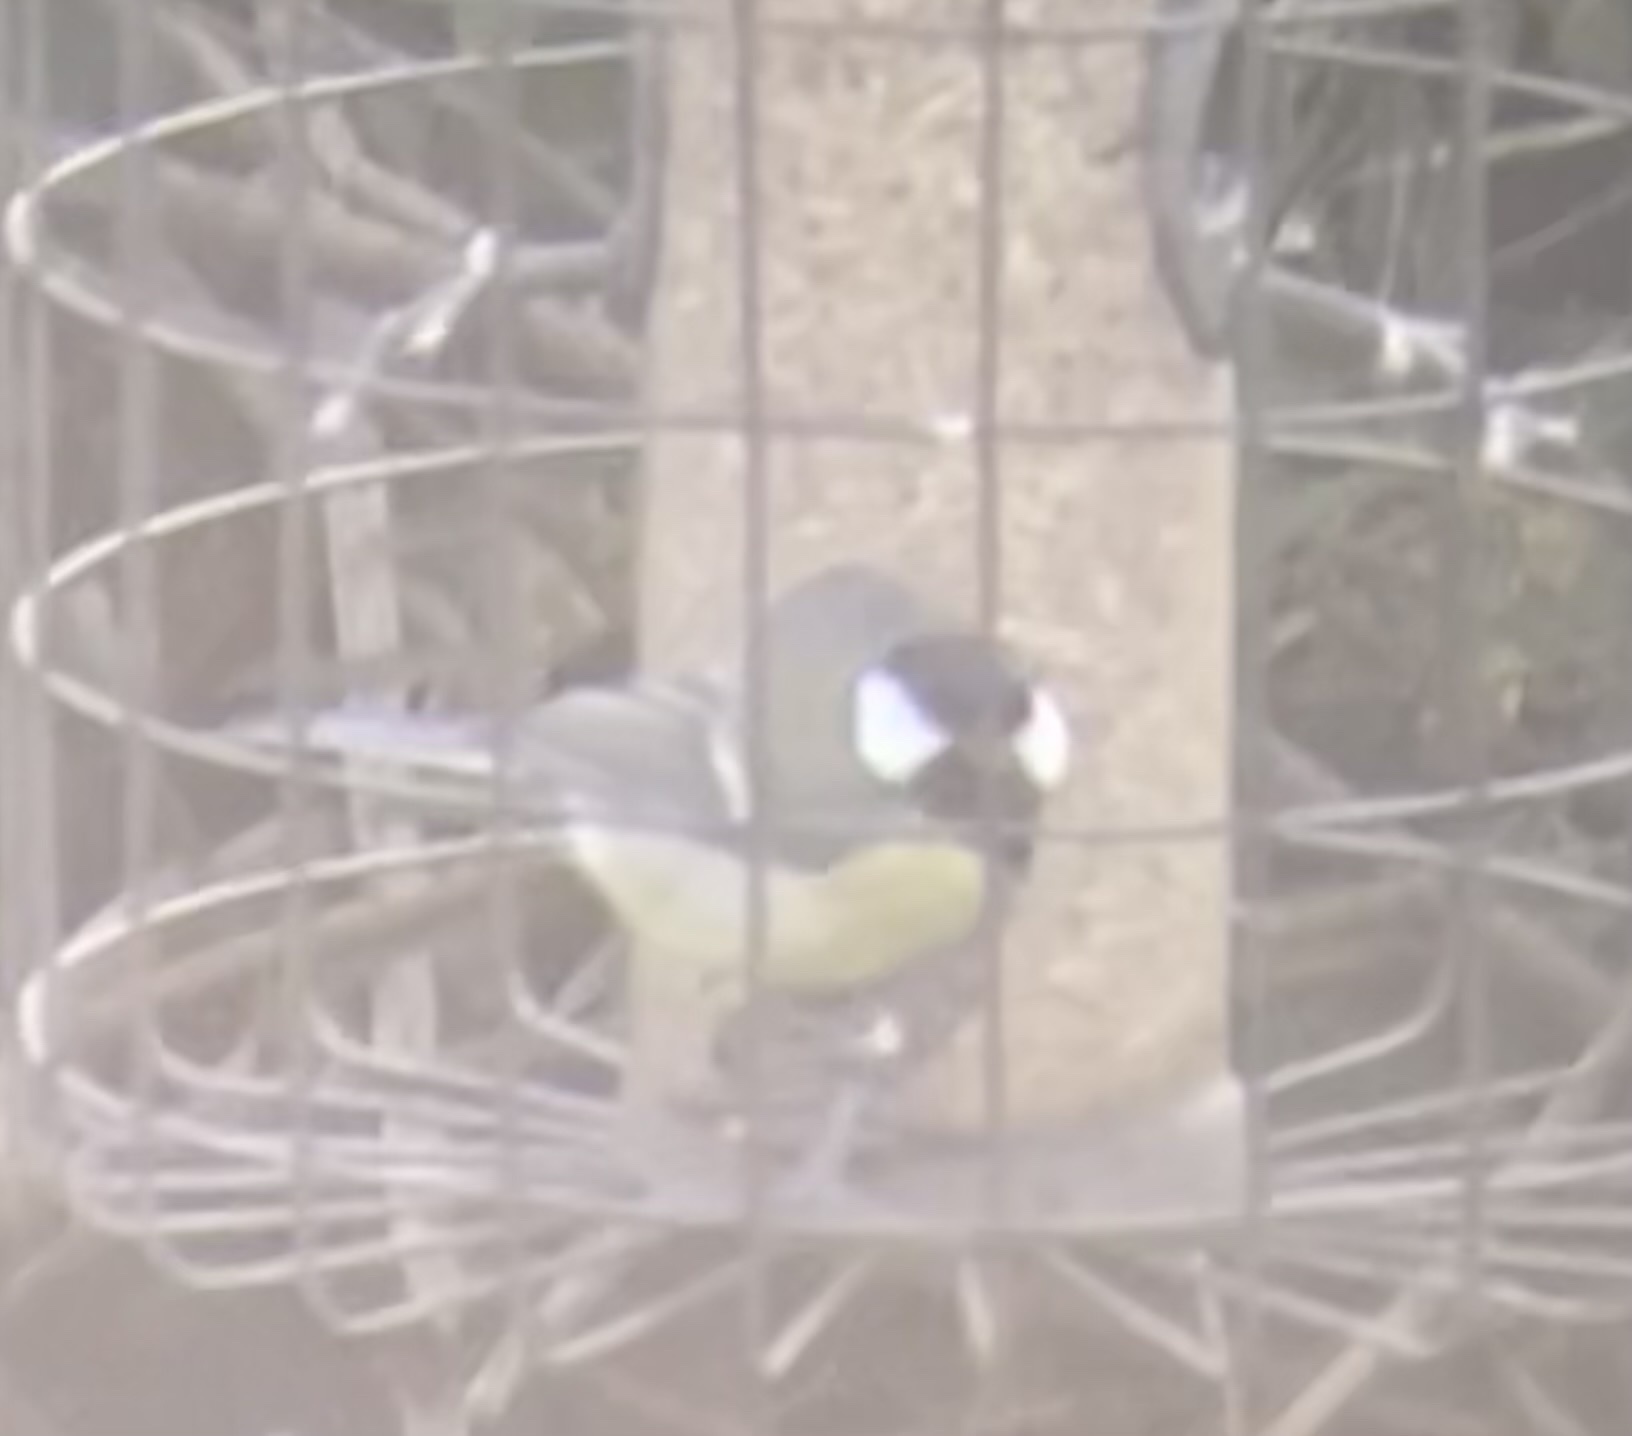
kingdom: Animalia
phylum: Chordata
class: Aves
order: Passeriformes
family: Paridae
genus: Parus
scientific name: Parus major
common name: Great tit
